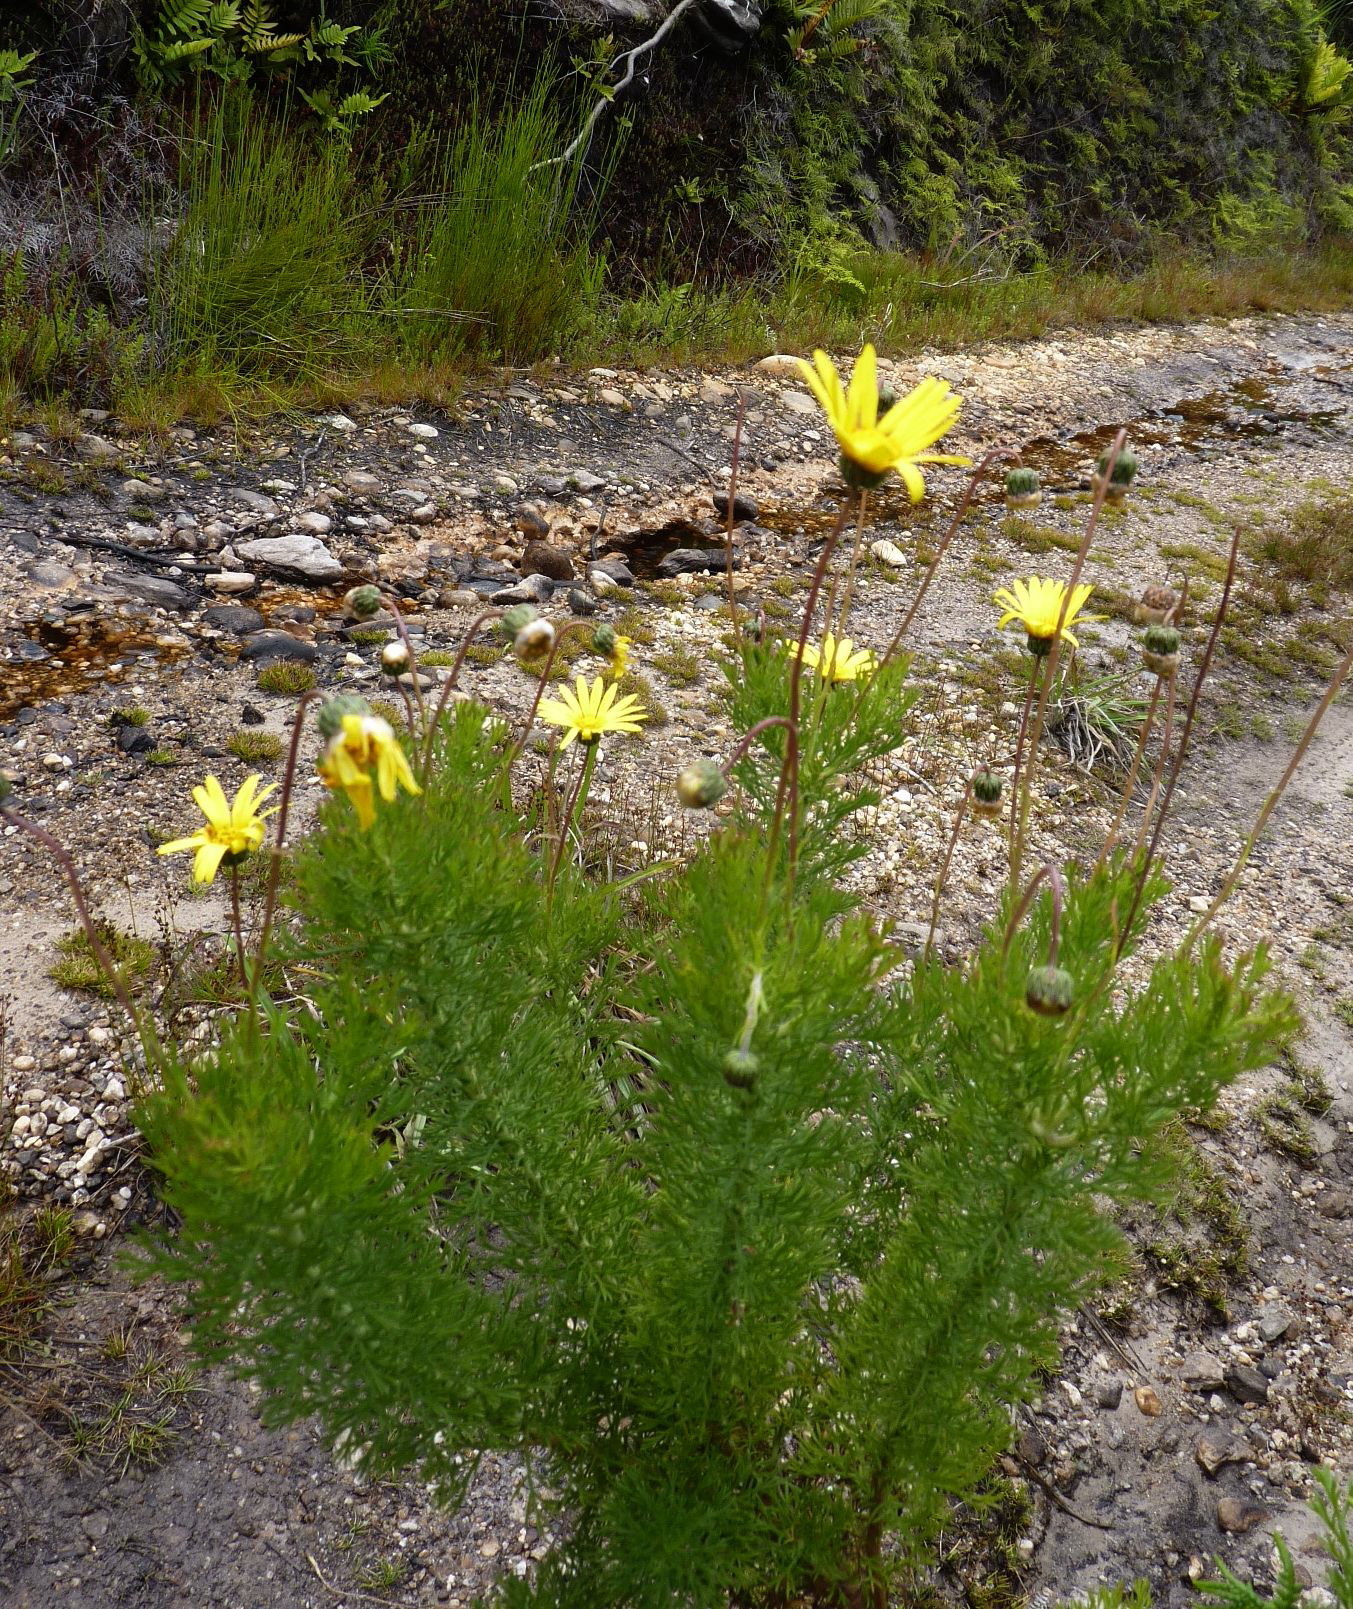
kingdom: Plantae
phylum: Tracheophyta
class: Magnoliopsida
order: Asterales
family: Asteraceae
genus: Ursinia
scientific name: Ursinia anethoides
